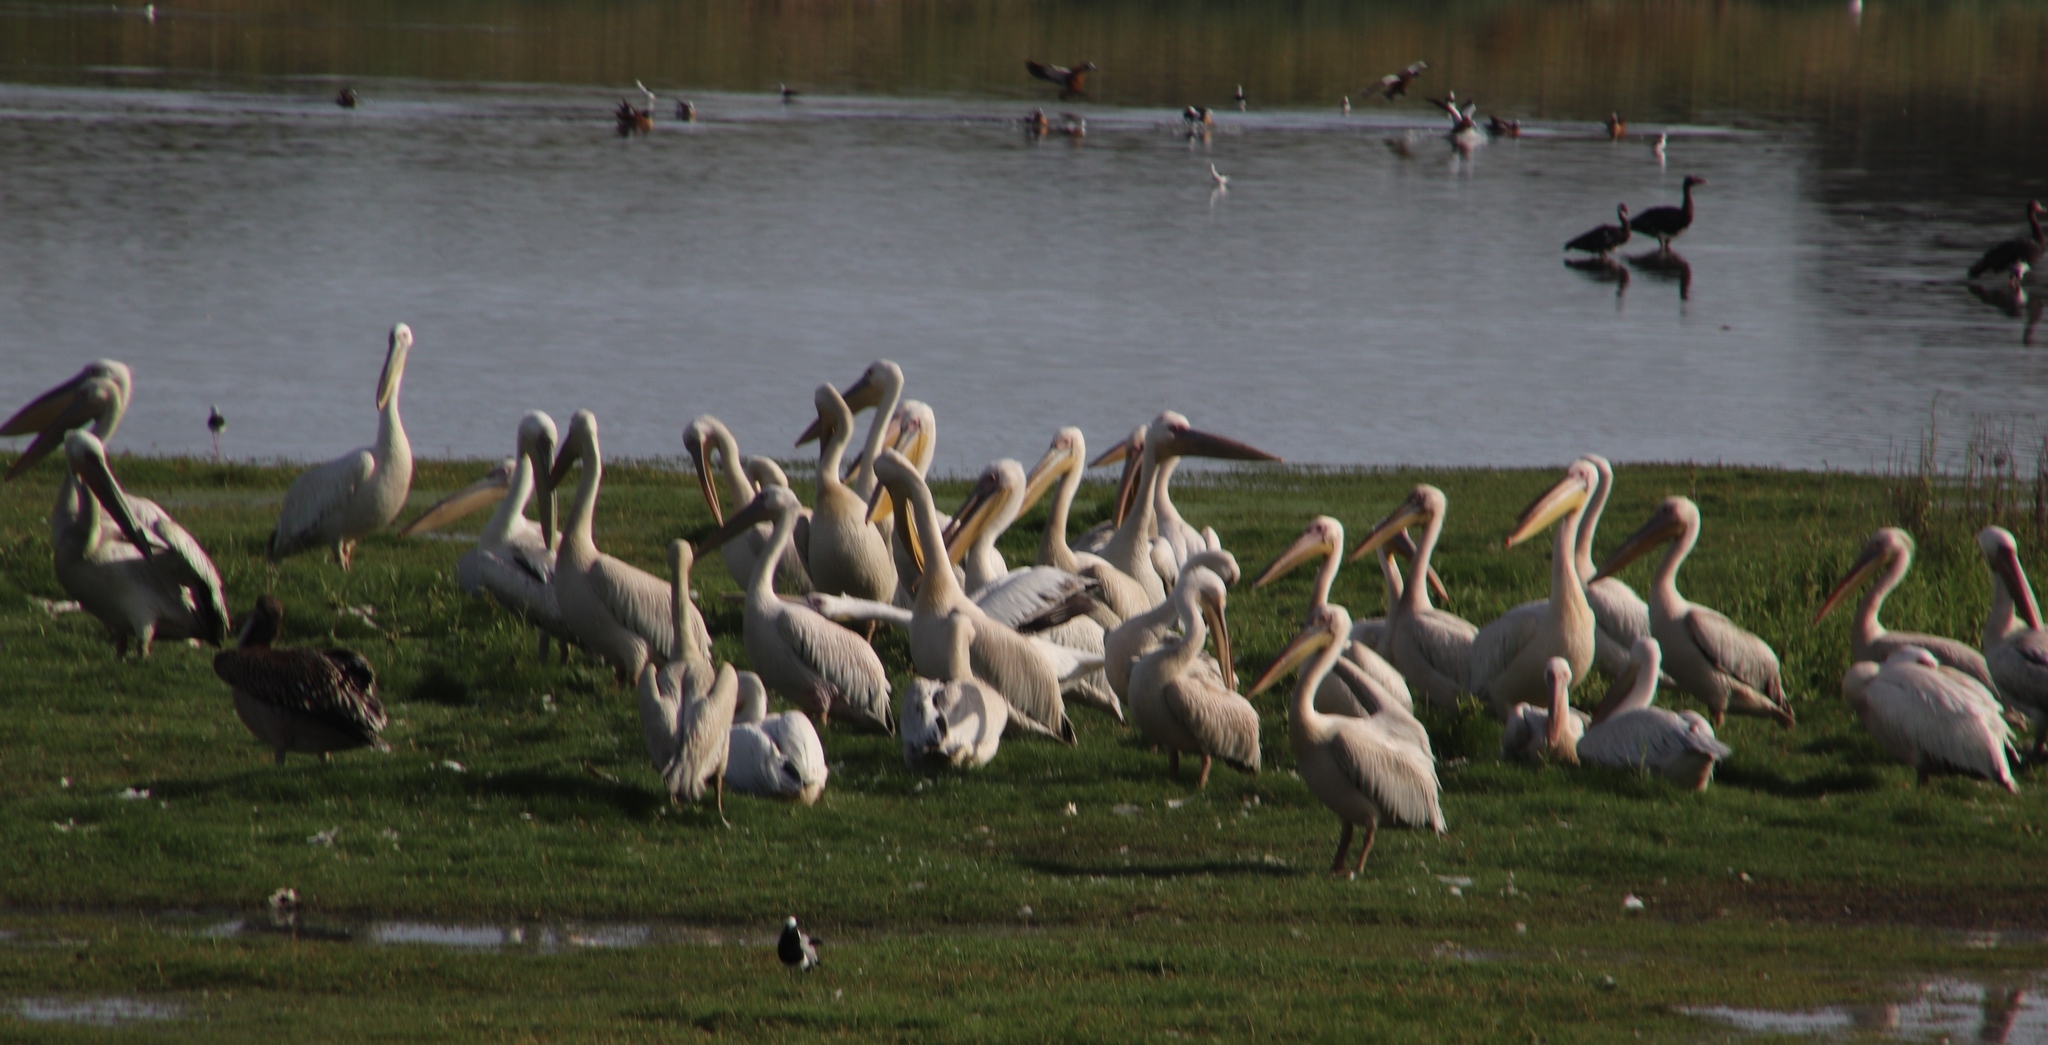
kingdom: Animalia
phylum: Chordata
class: Aves
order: Pelecaniformes
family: Pelecanidae
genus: Pelecanus
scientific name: Pelecanus onocrotalus
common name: Great white pelican
